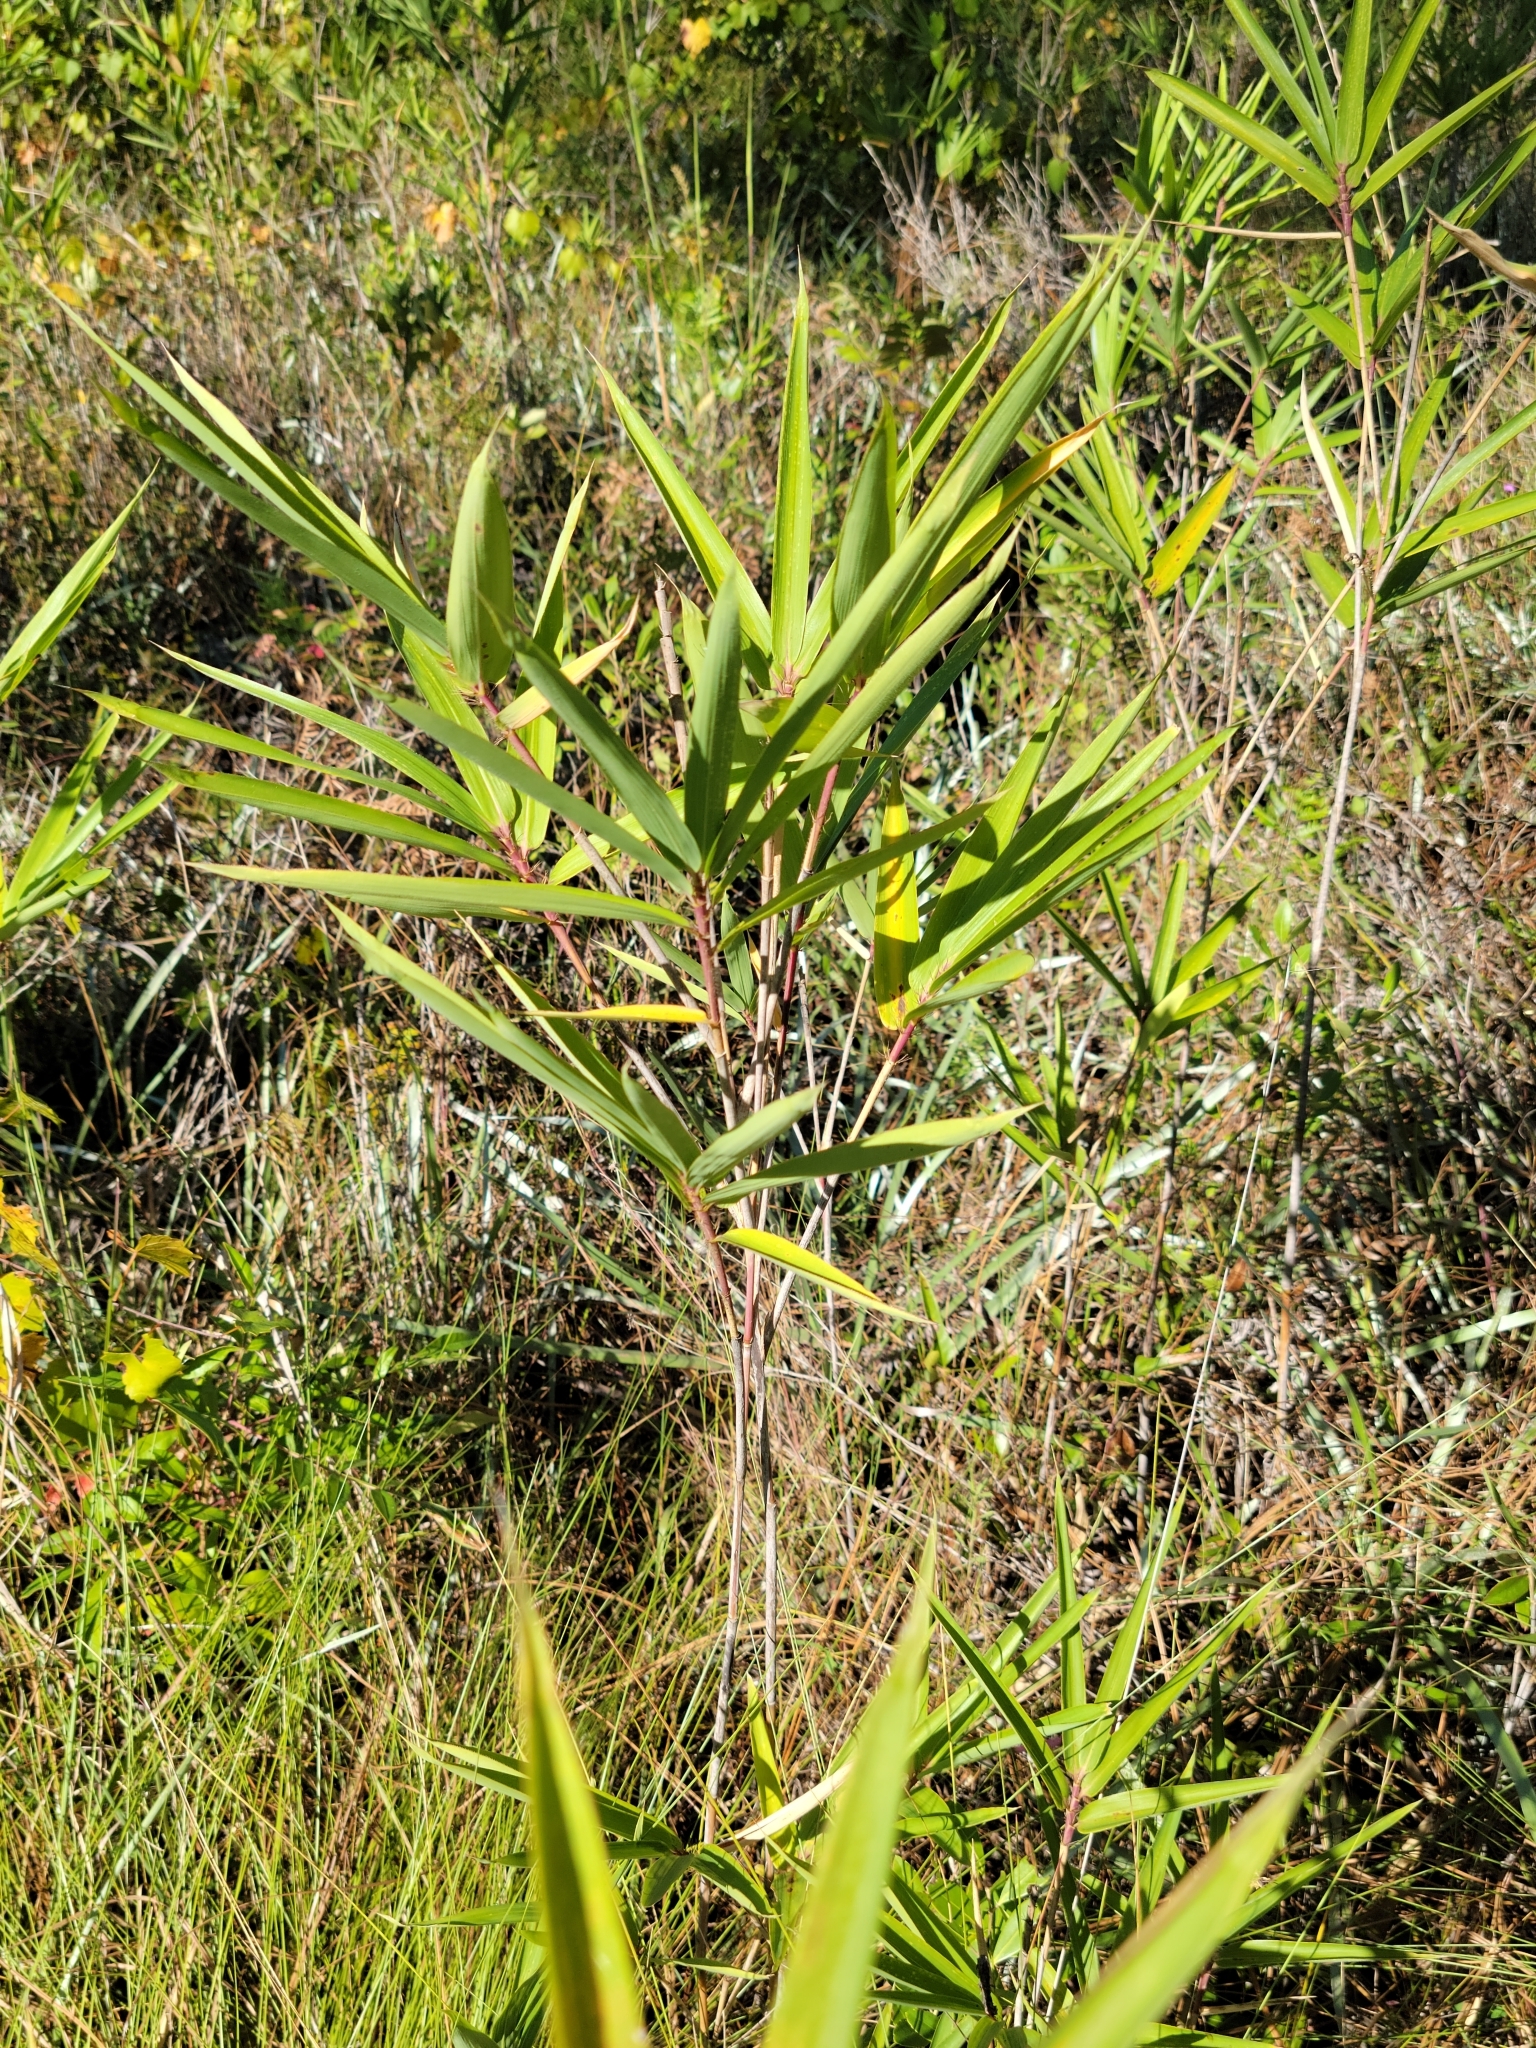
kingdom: Plantae
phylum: Tracheophyta
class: Liliopsida
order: Poales
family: Poaceae
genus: Arundinaria
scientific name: Arundinaria tecta
